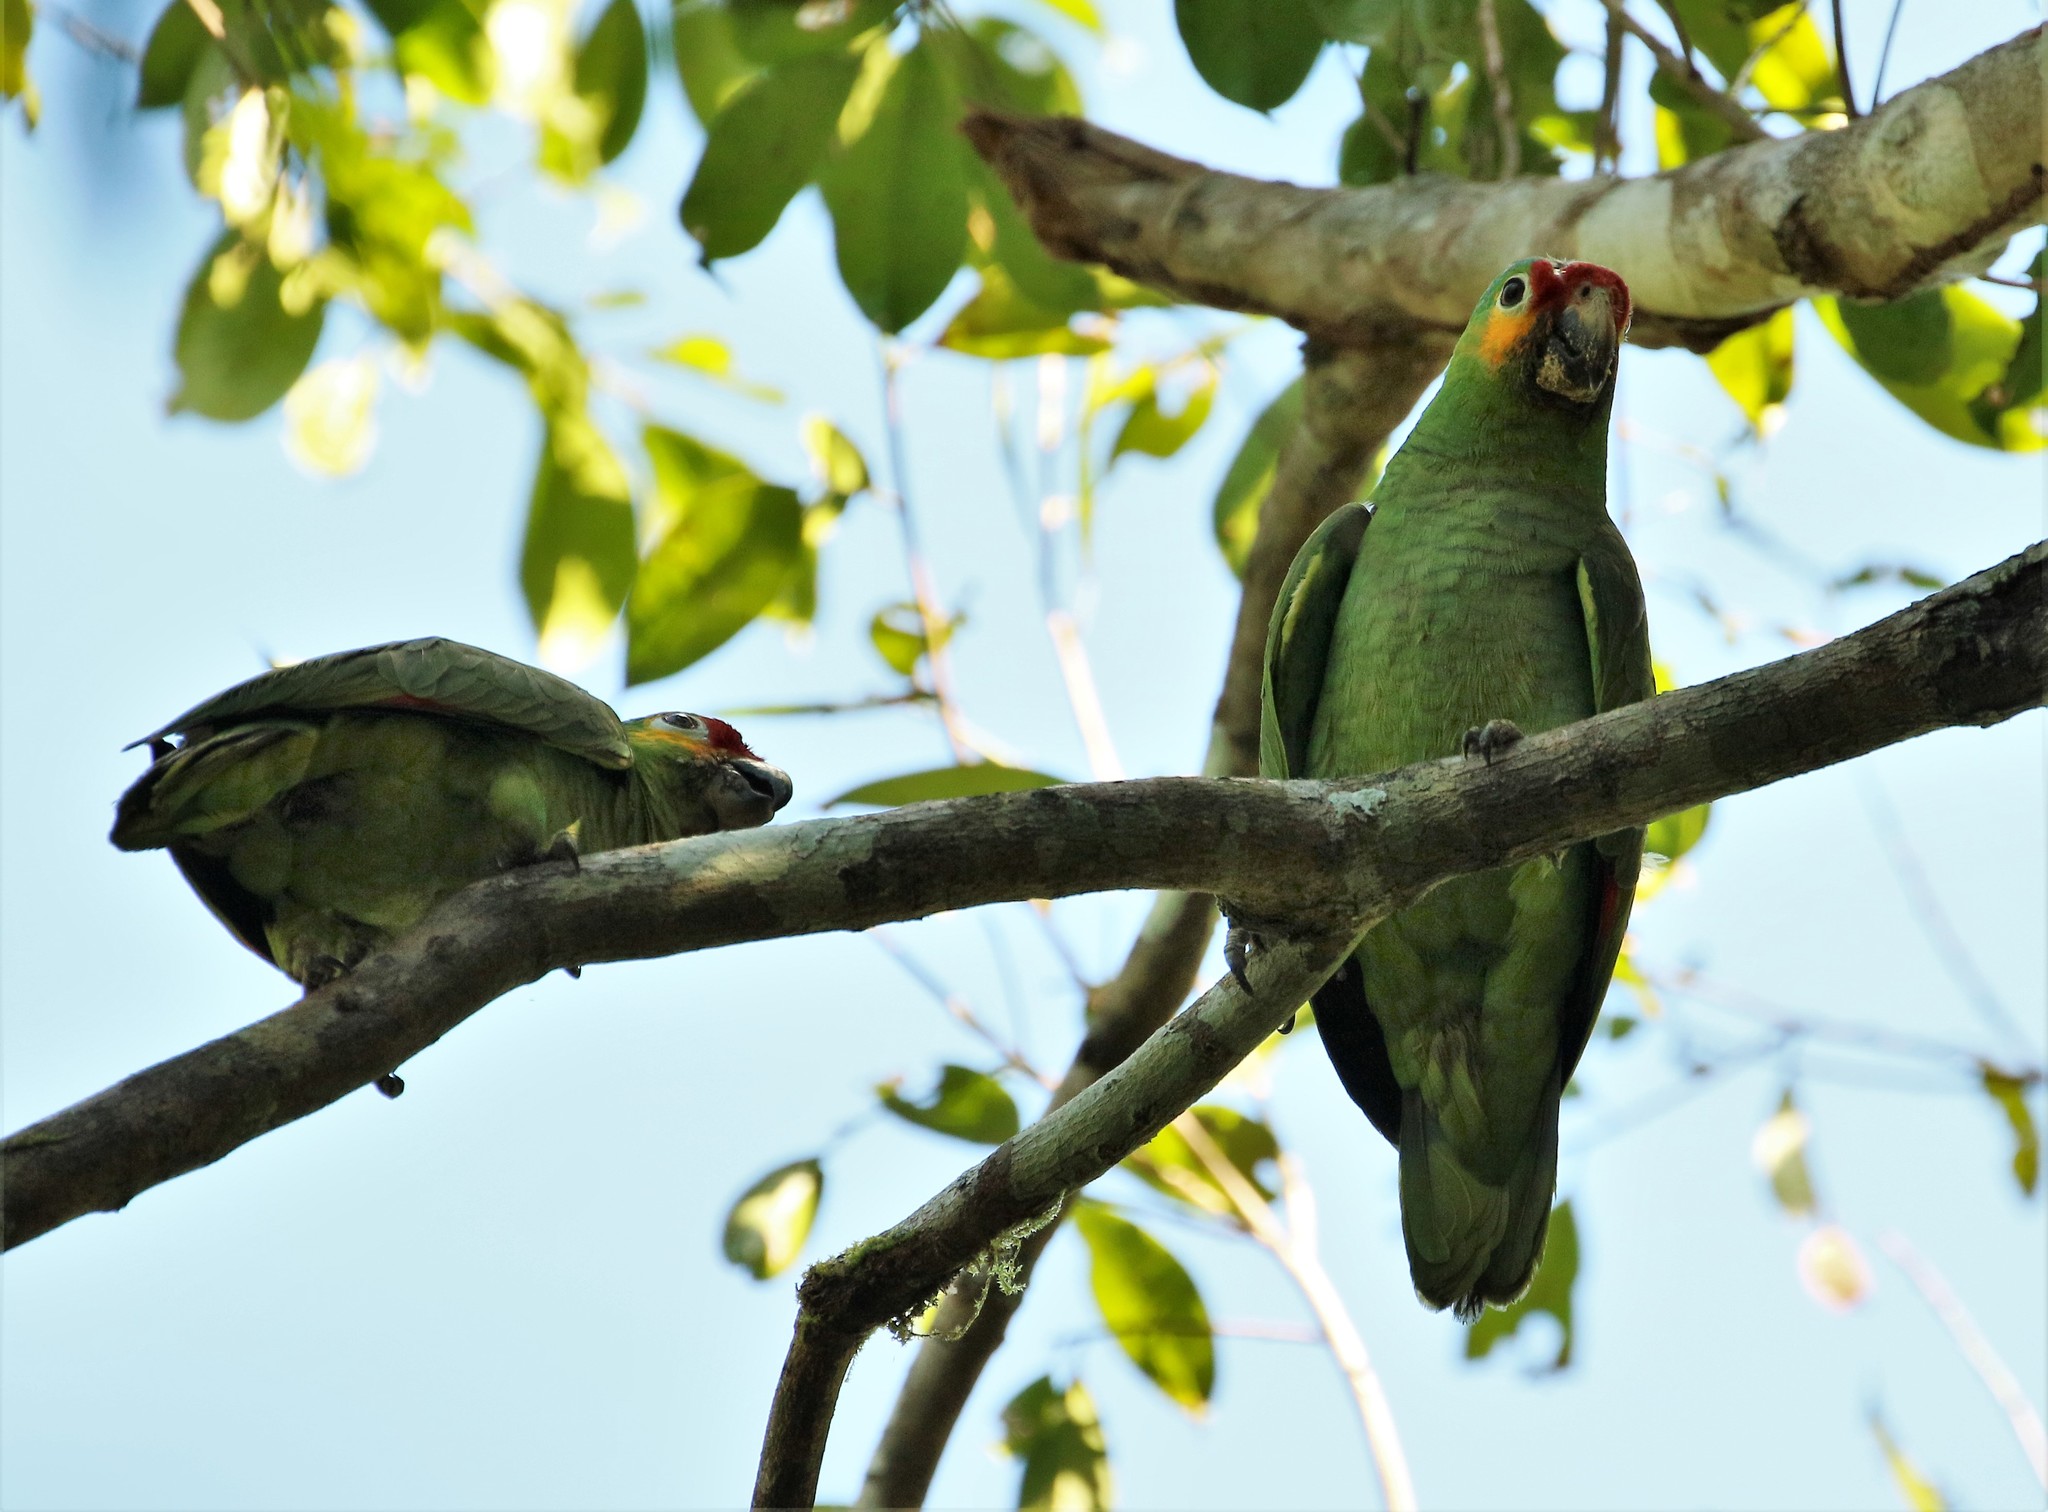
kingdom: Animalia
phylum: Chordata
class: Aves
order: Psittaciformes
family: Psittacidae
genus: Amazona
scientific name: Amazona autumnalis
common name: Red-lored amazon
